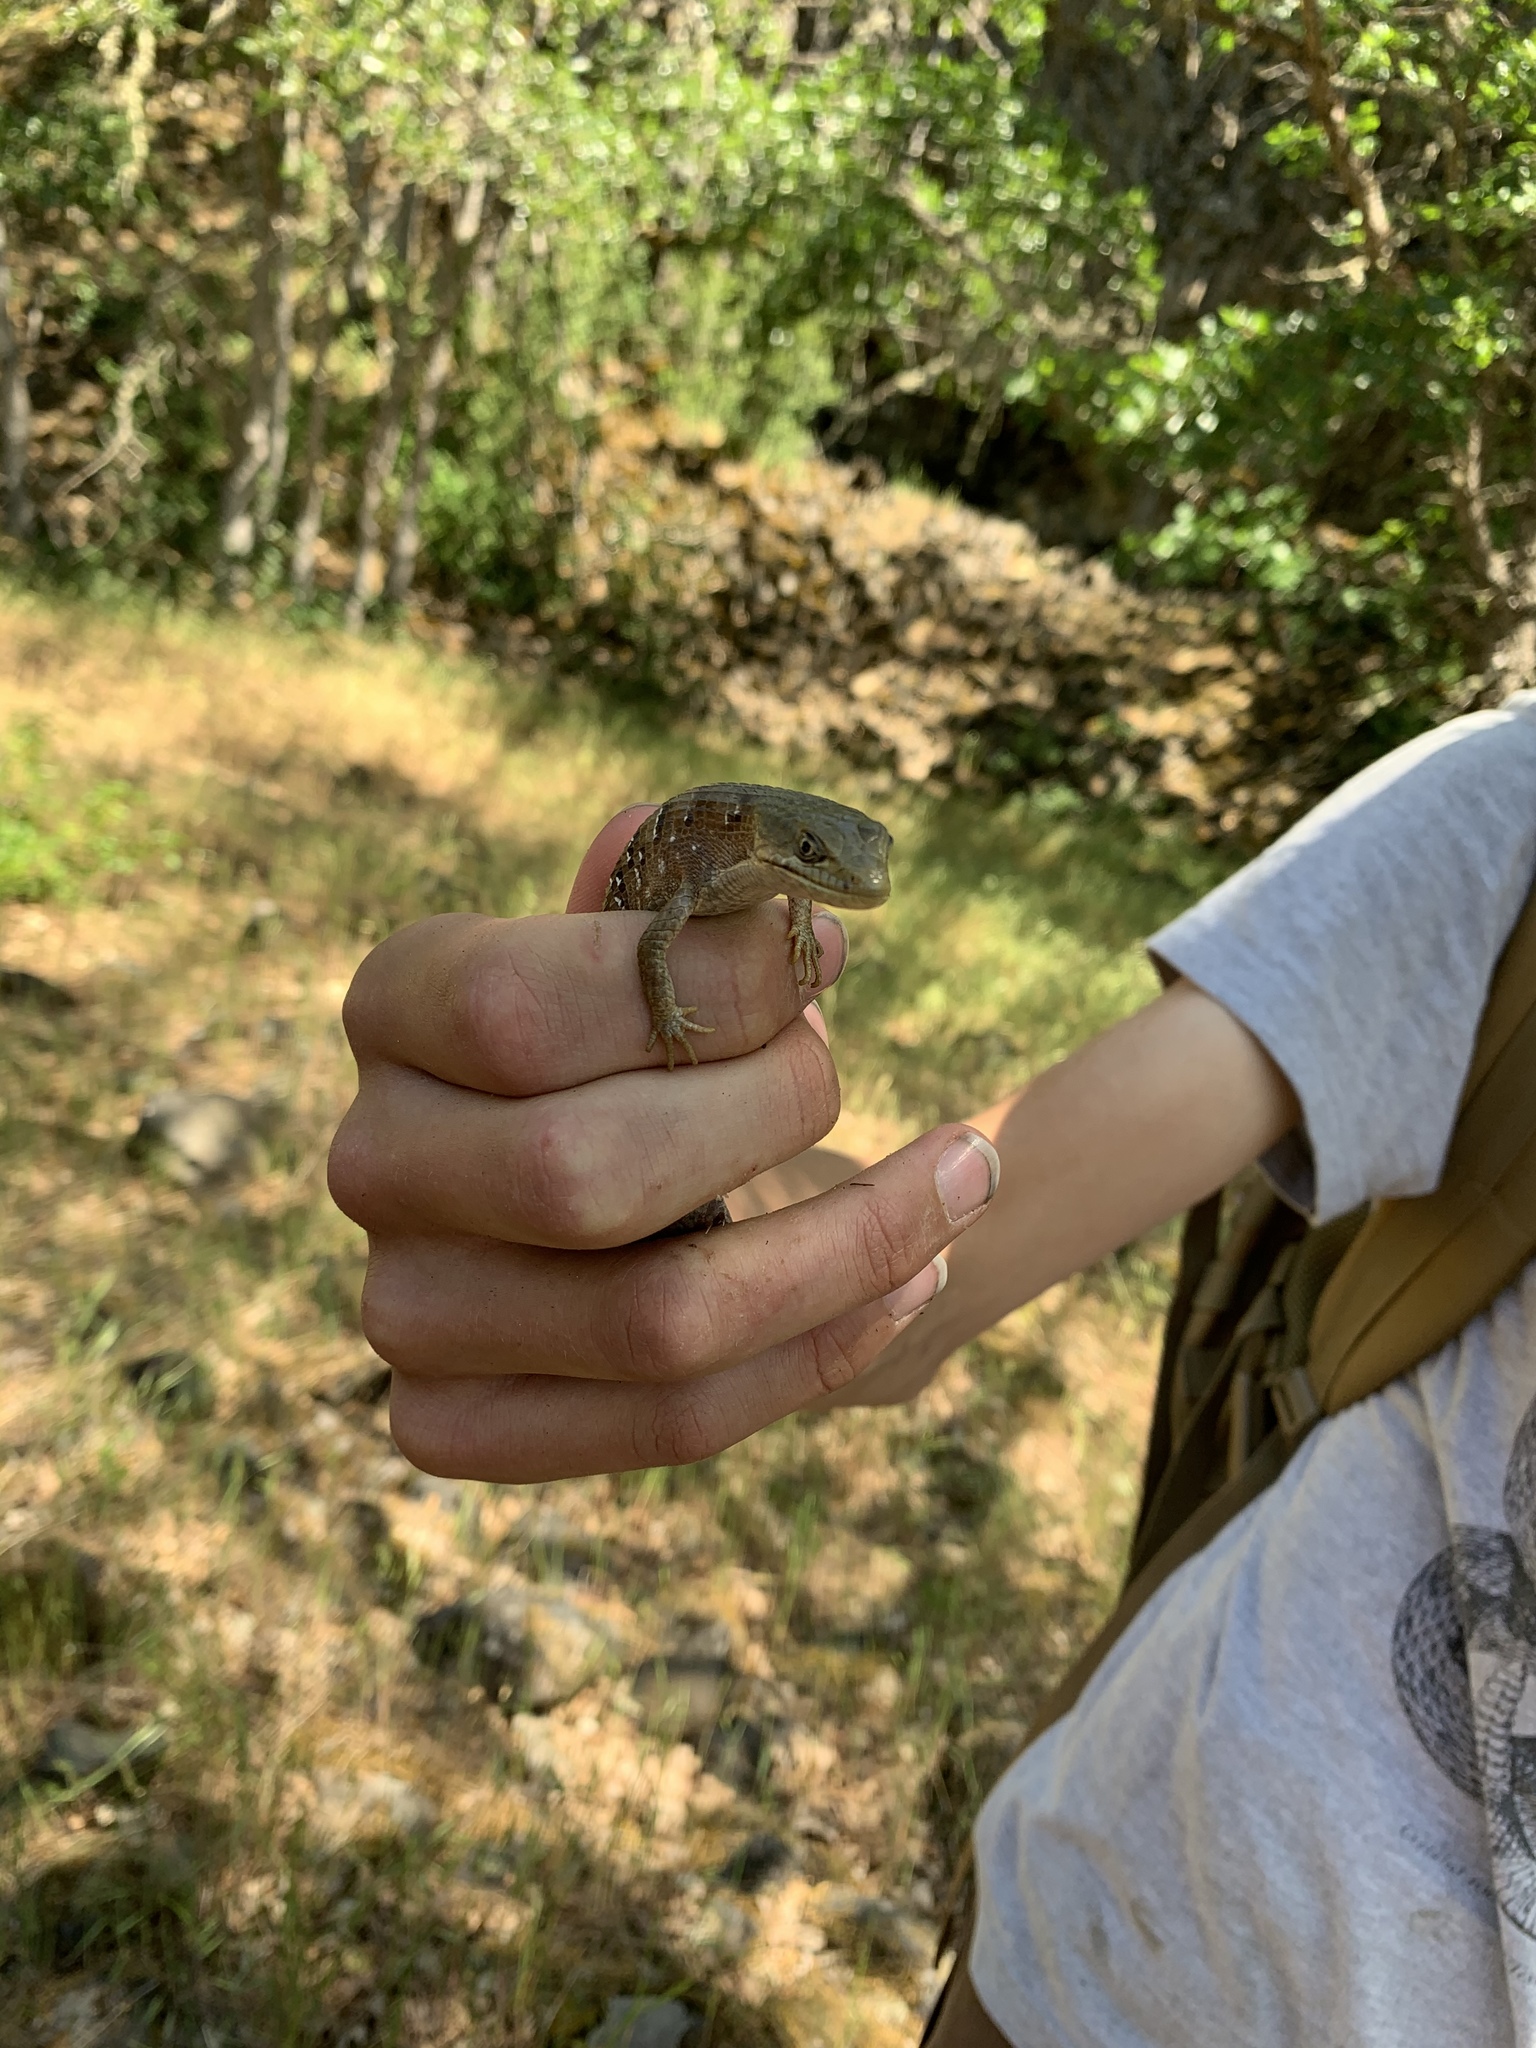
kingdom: Animalia
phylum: Chordata
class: Squamata
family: Anguidae
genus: Elgaria
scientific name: Elgaria multicarinata
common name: Southern alligator lizard
